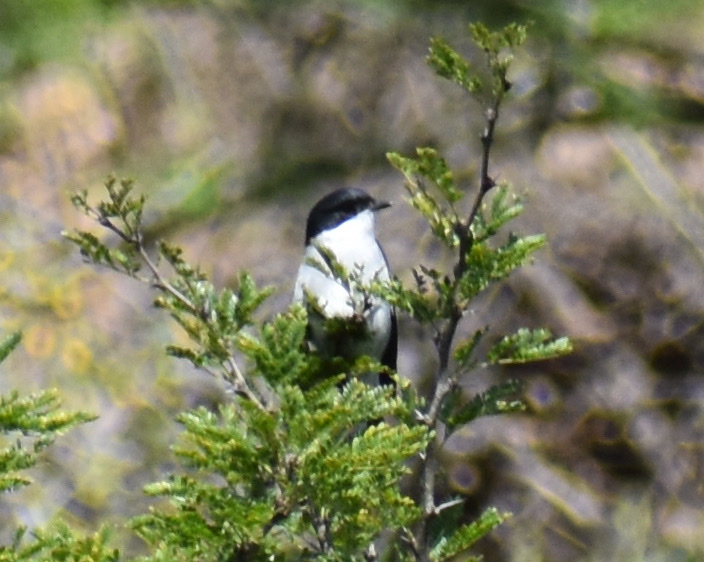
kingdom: Animalia
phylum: Chordata
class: Aves
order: Passeriformes
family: Laniidae
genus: Lanius
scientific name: Lanius collaris
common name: Southern fiscal
